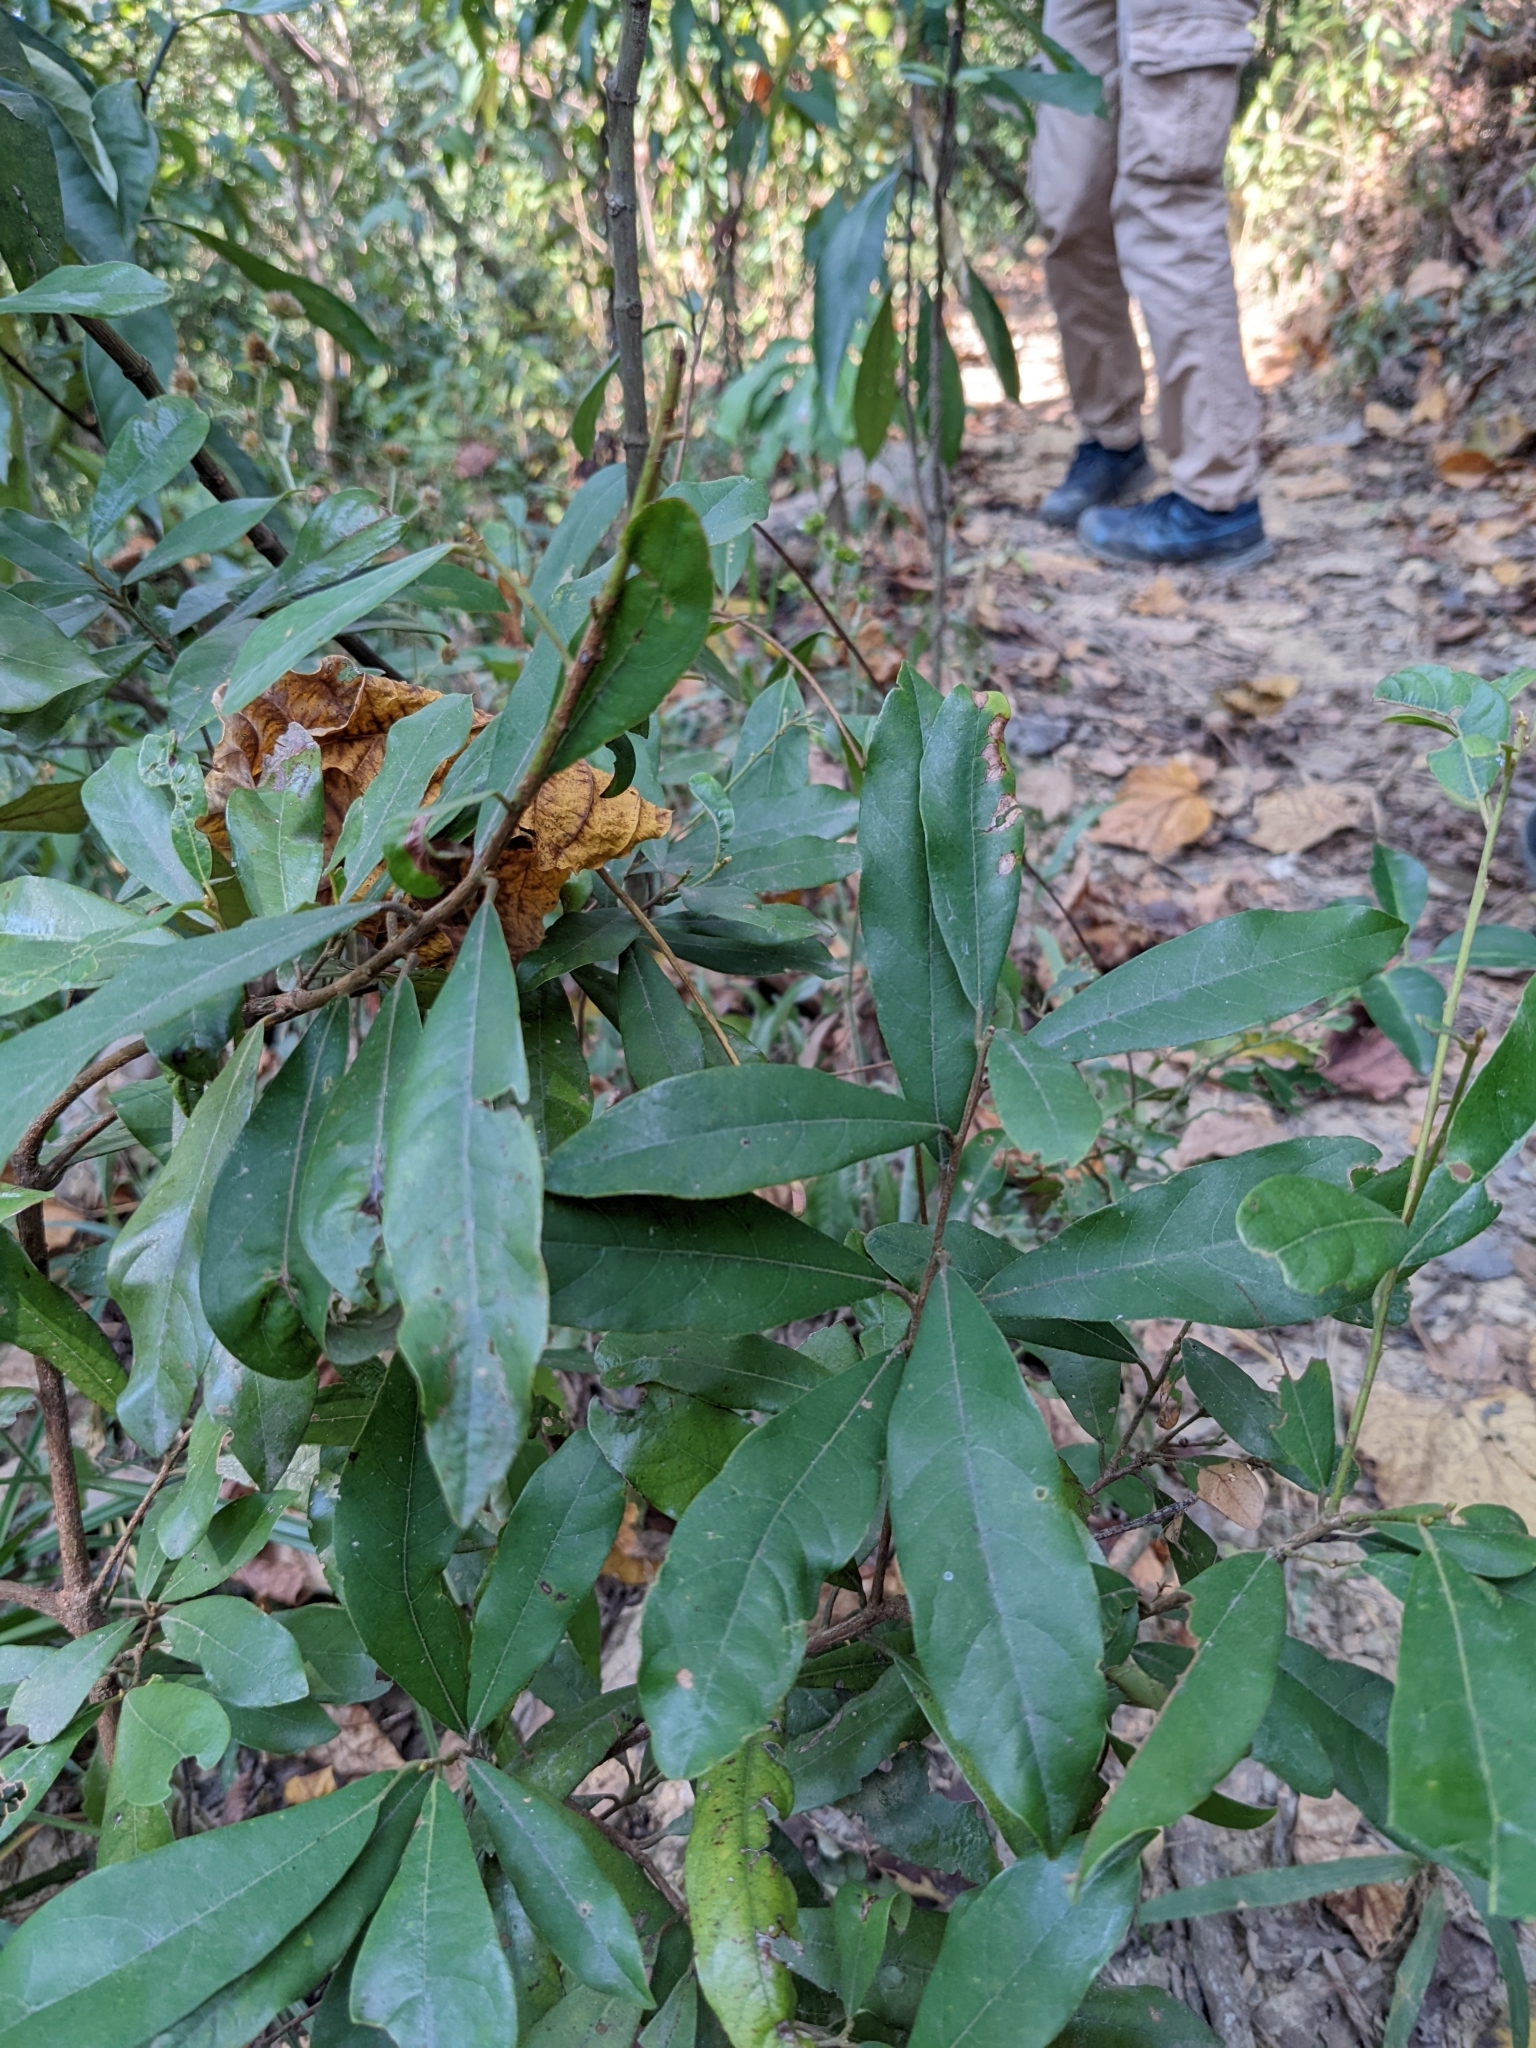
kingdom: Plantae
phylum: Tracheophyta
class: Magnoliopsida
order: Laurales
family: Lauraceae
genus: Litsea
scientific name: Litsea hypophaea
